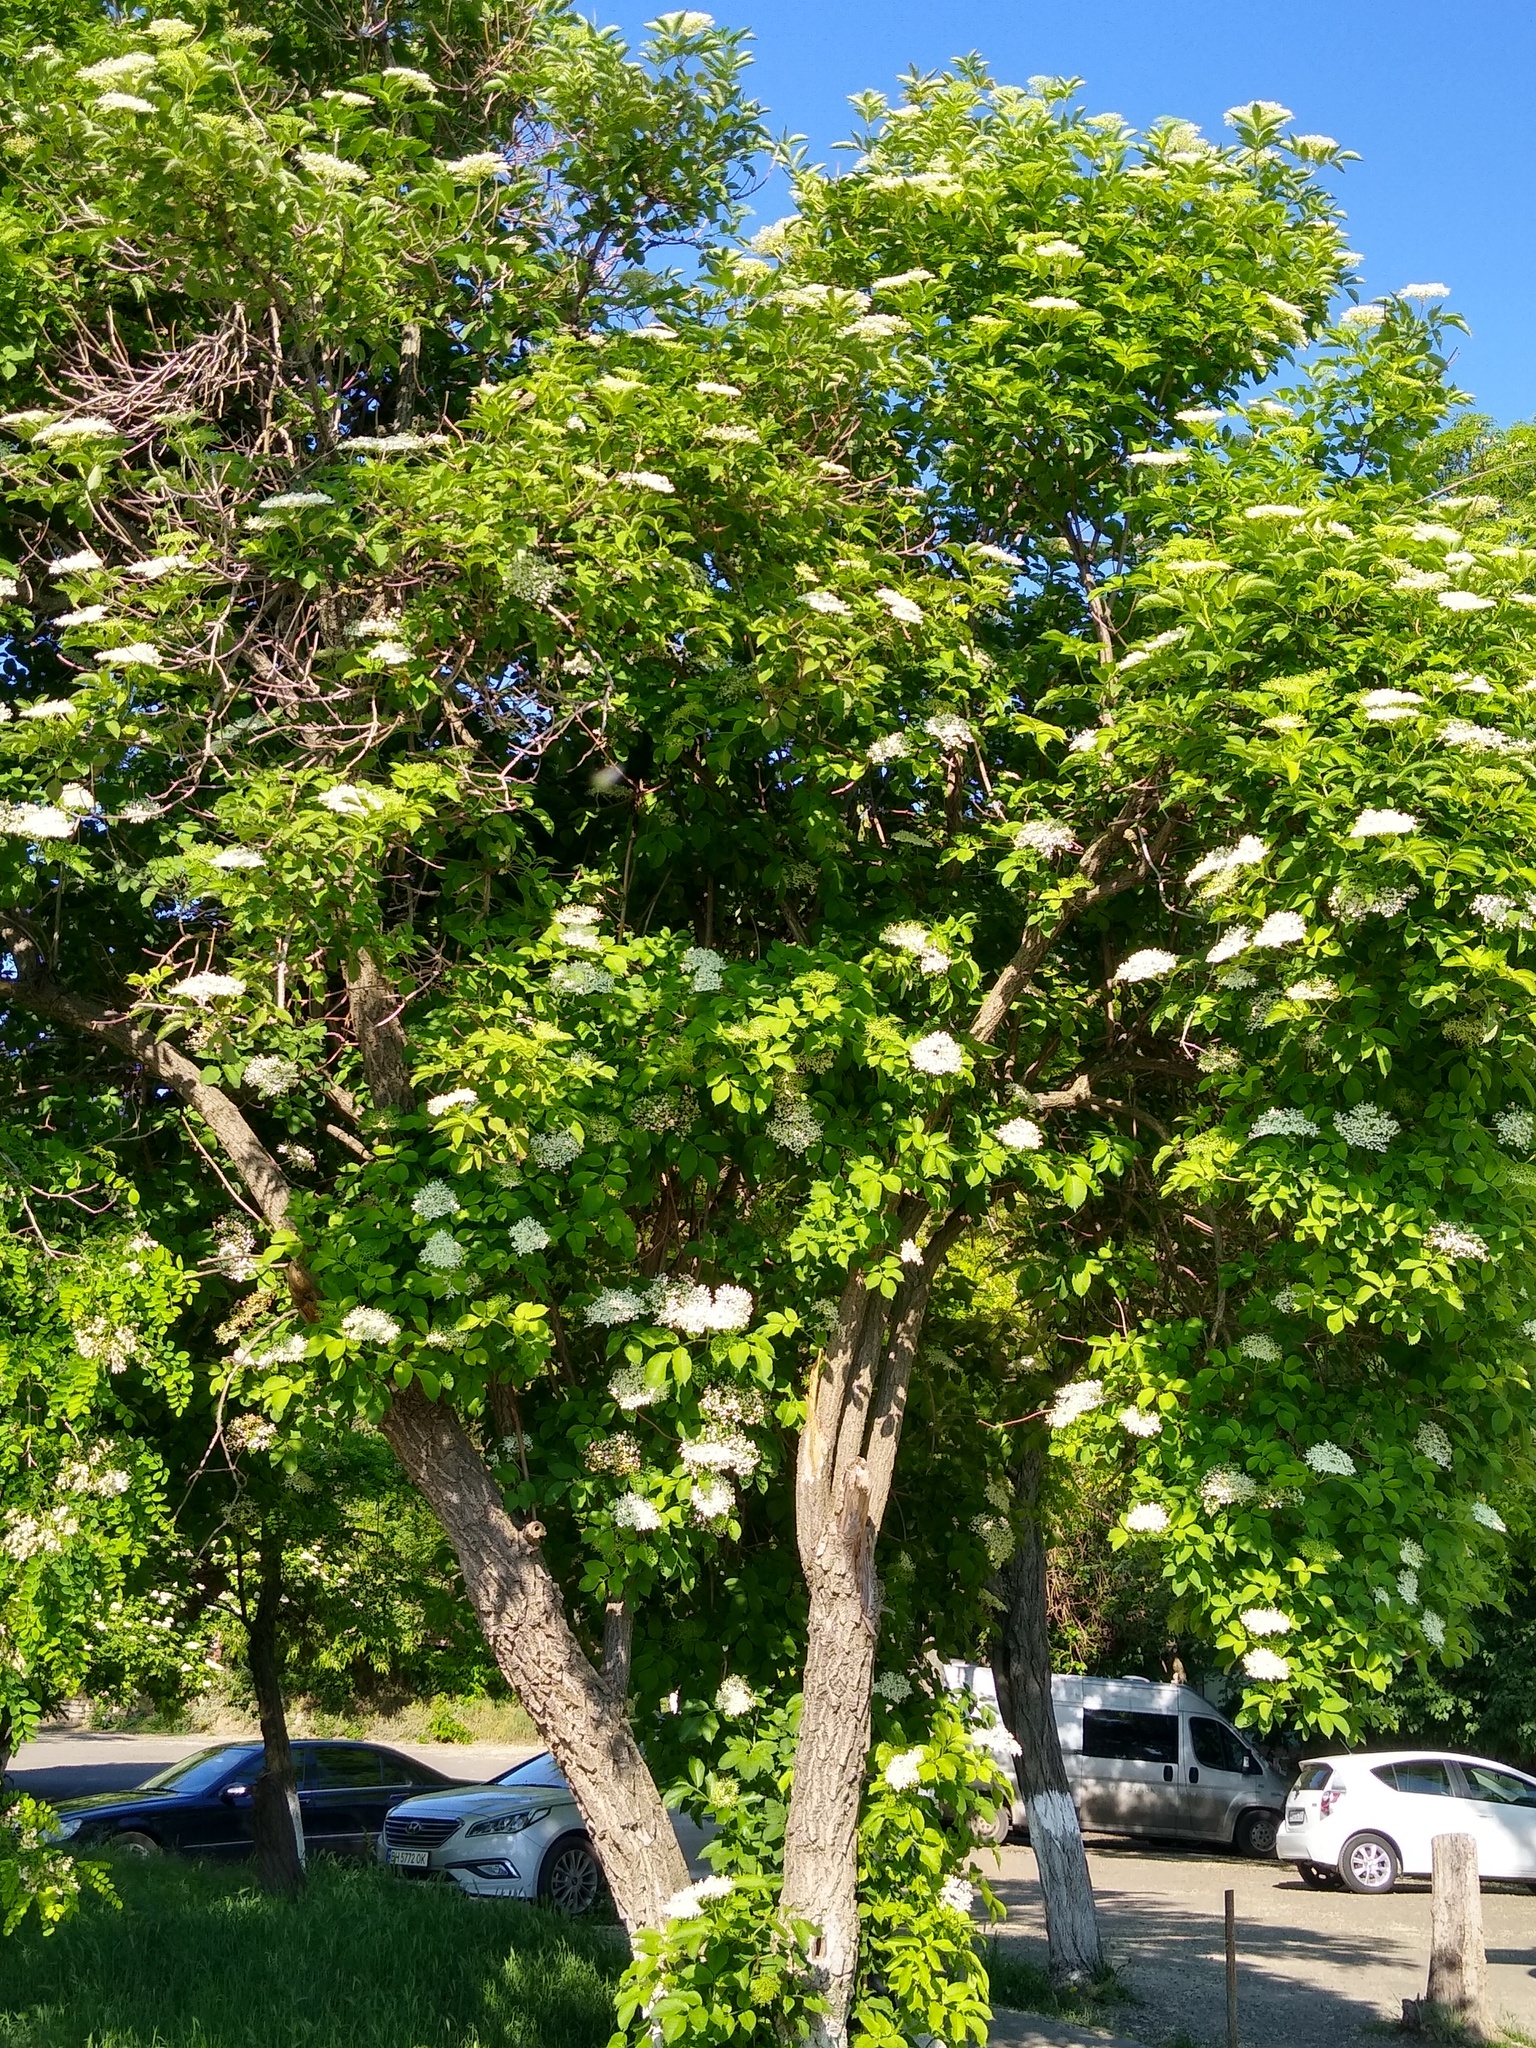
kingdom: Plantae
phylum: Tracheophyta
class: Magnoliopsida
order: Dipsacales
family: Viburnaceae
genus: Sambucus
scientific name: Sambucus nigra
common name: Elder
